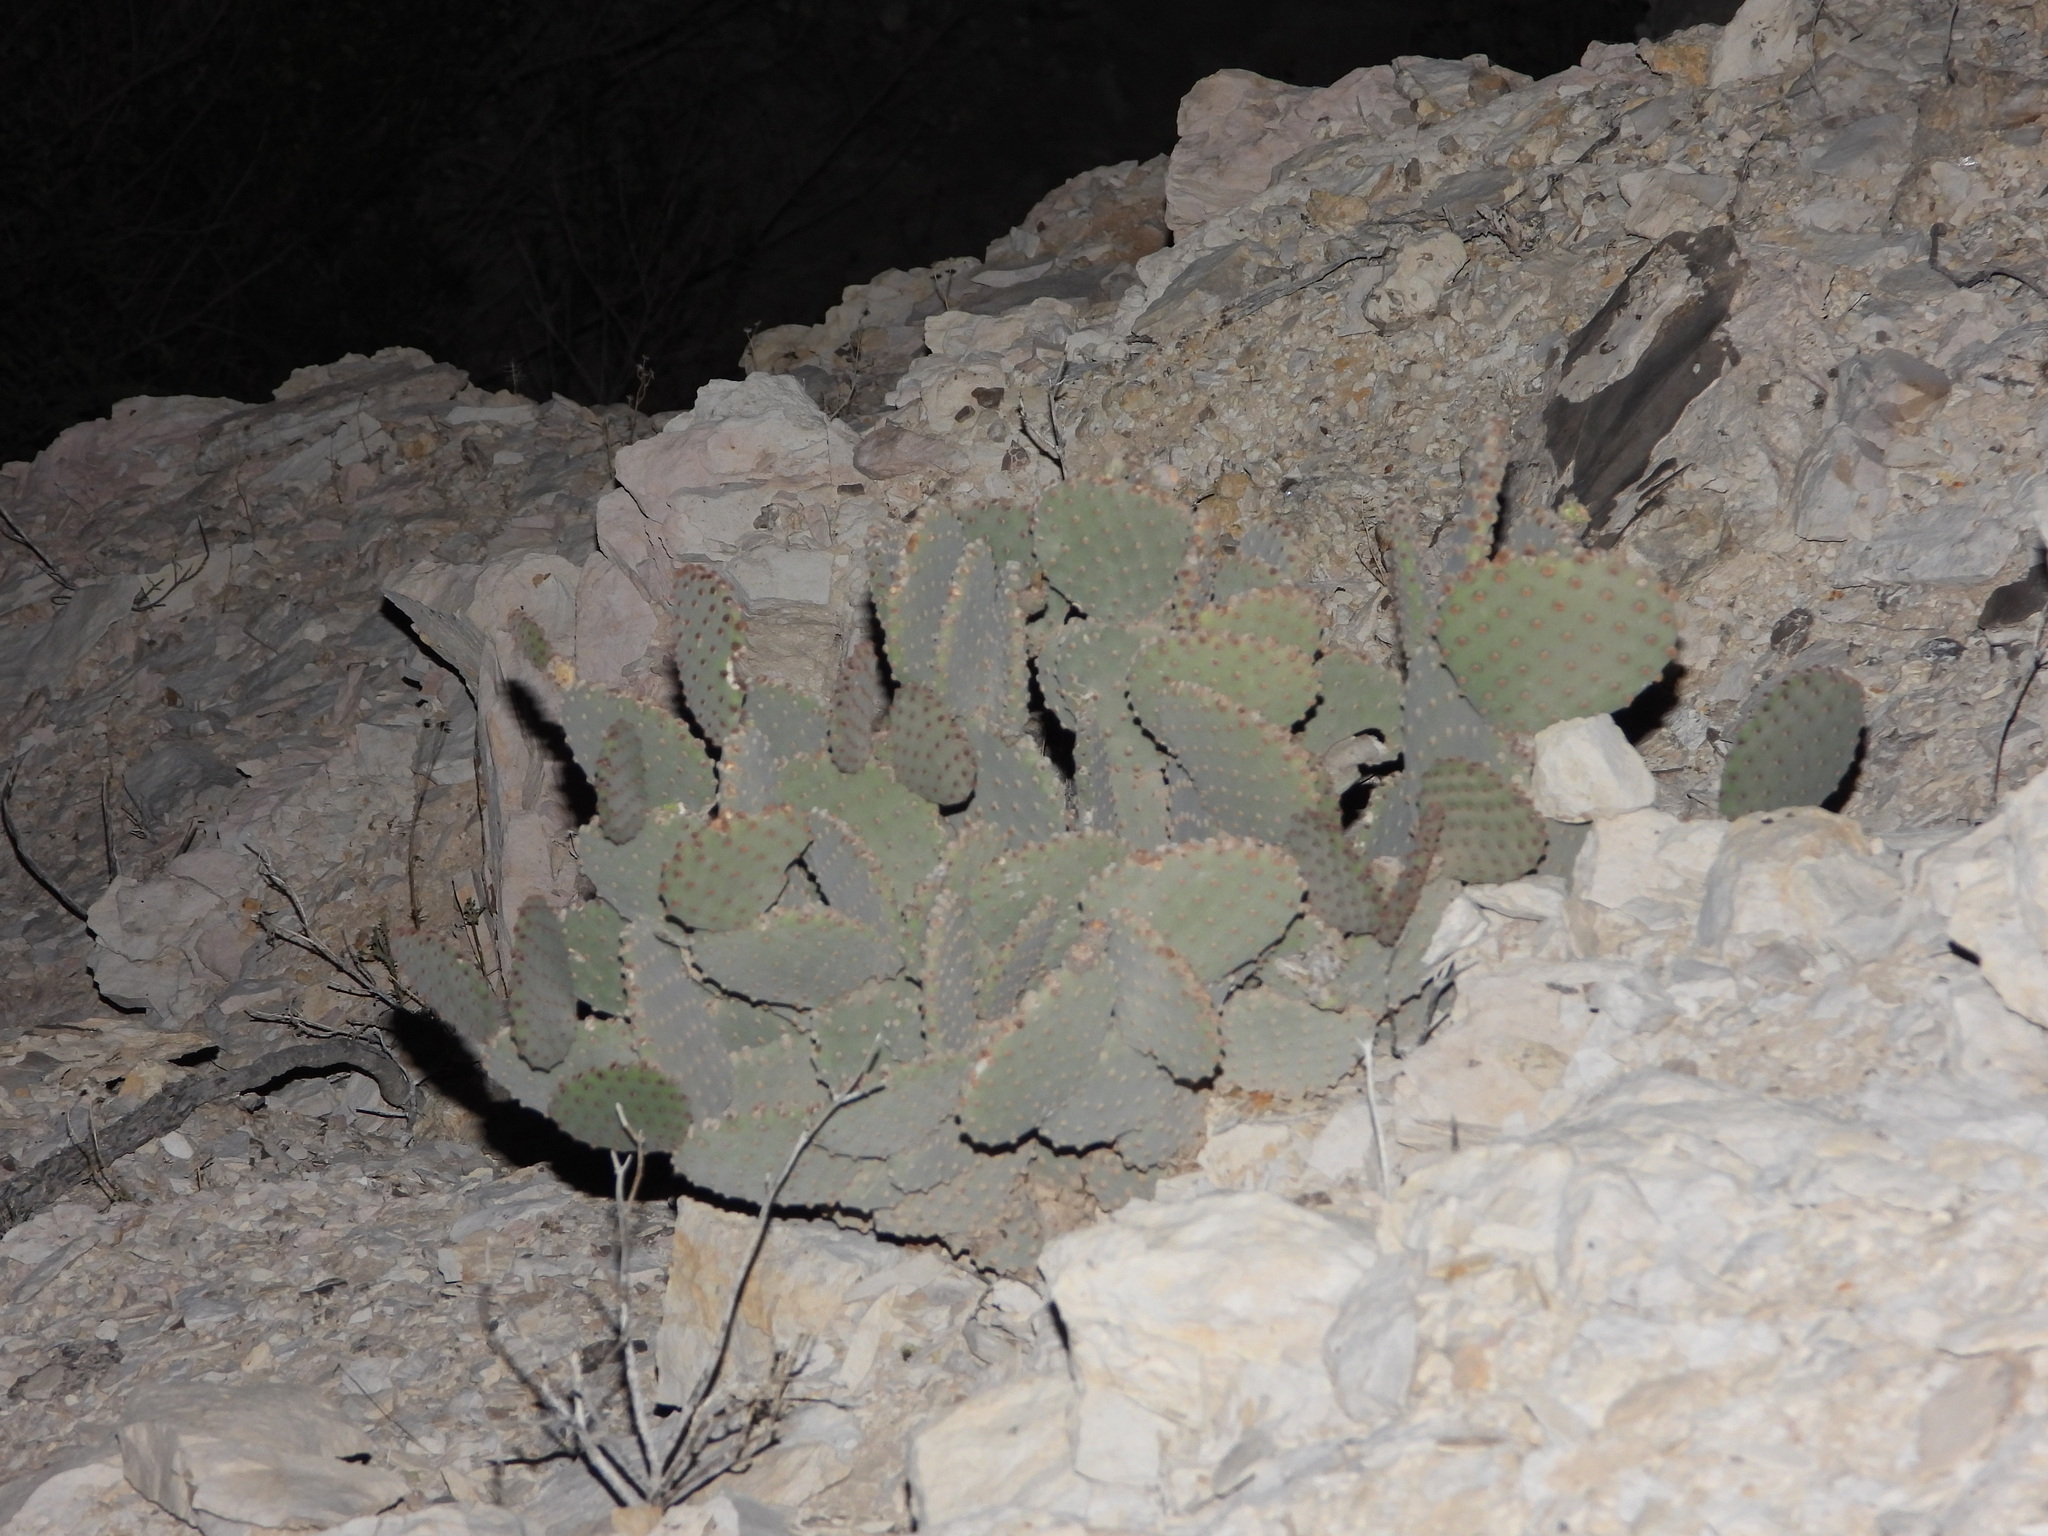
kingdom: Plantae
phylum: Tracheophyta
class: Magnoliopsida
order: Caryophyllales
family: Cactaceae
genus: Opuntia
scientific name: Opuntia rufida
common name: Blind pricklypear
